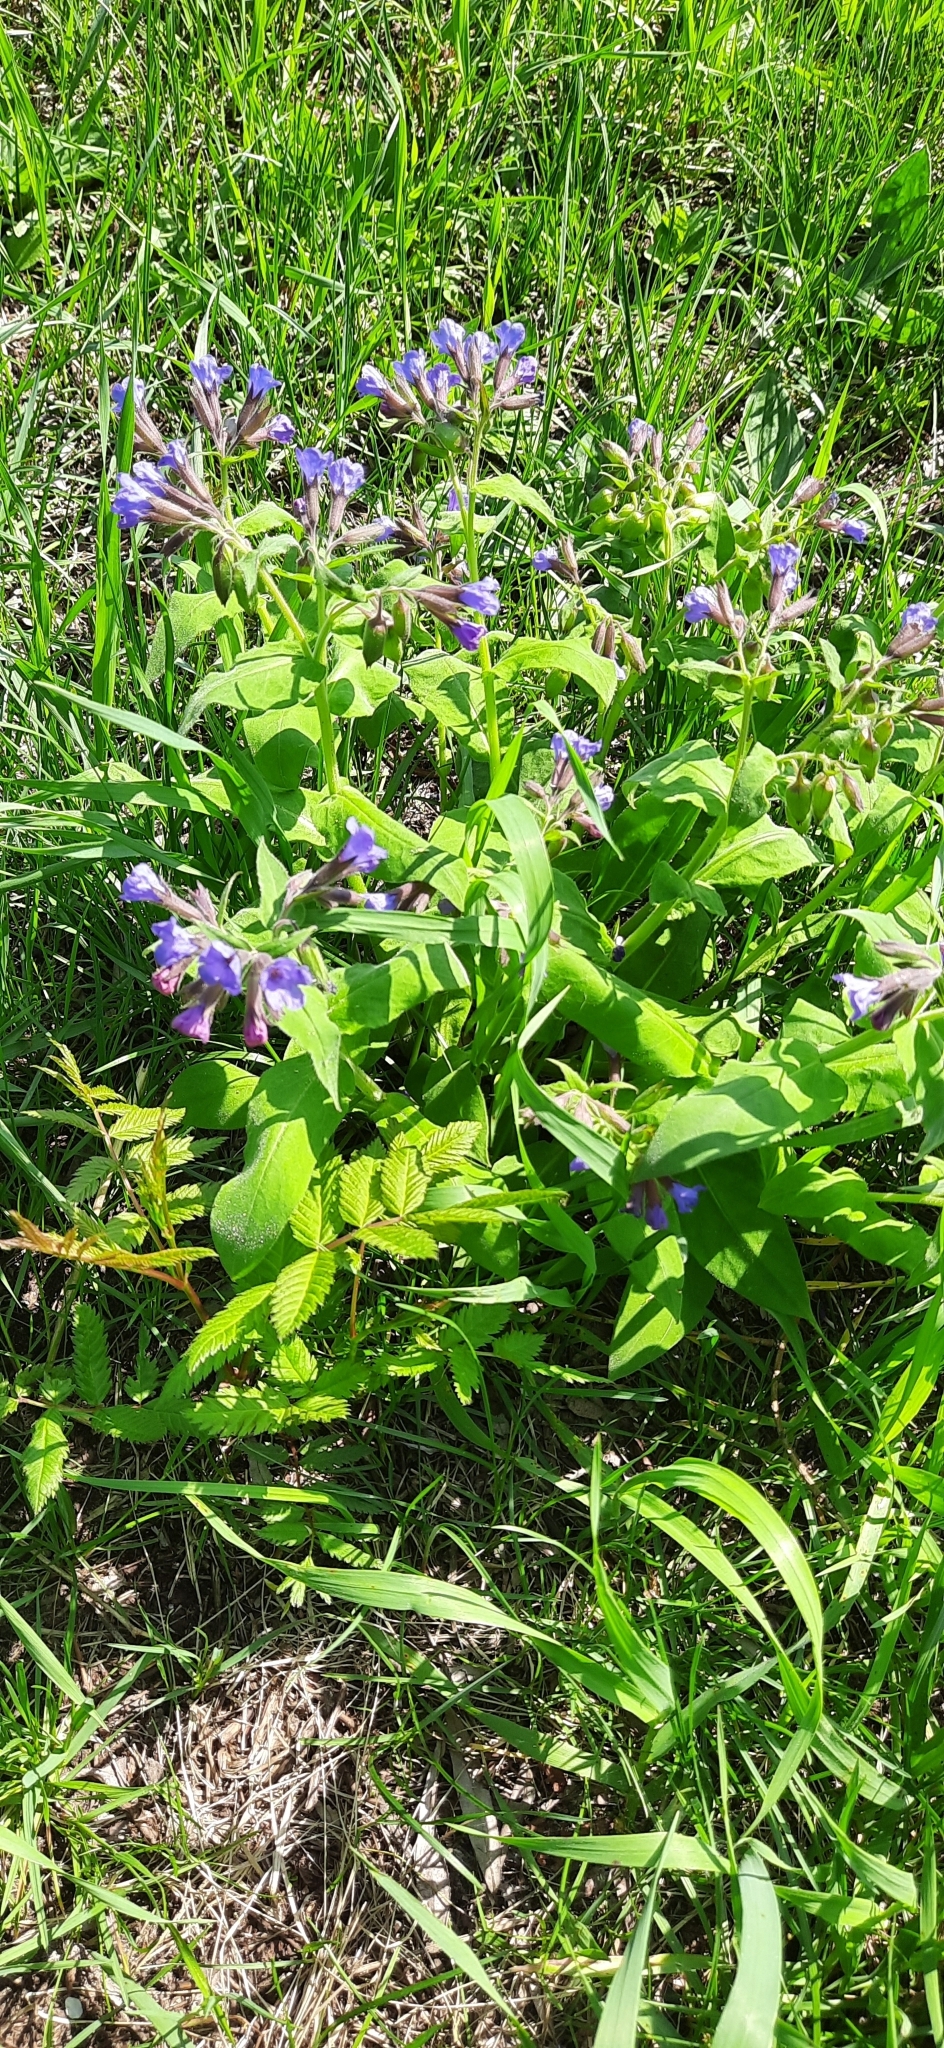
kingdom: Plantae
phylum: Tracheophyta
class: Magnoliopsida
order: Boraginales
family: Boraginaceae
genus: Pulmonaria
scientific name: Pulmonaria mollis
